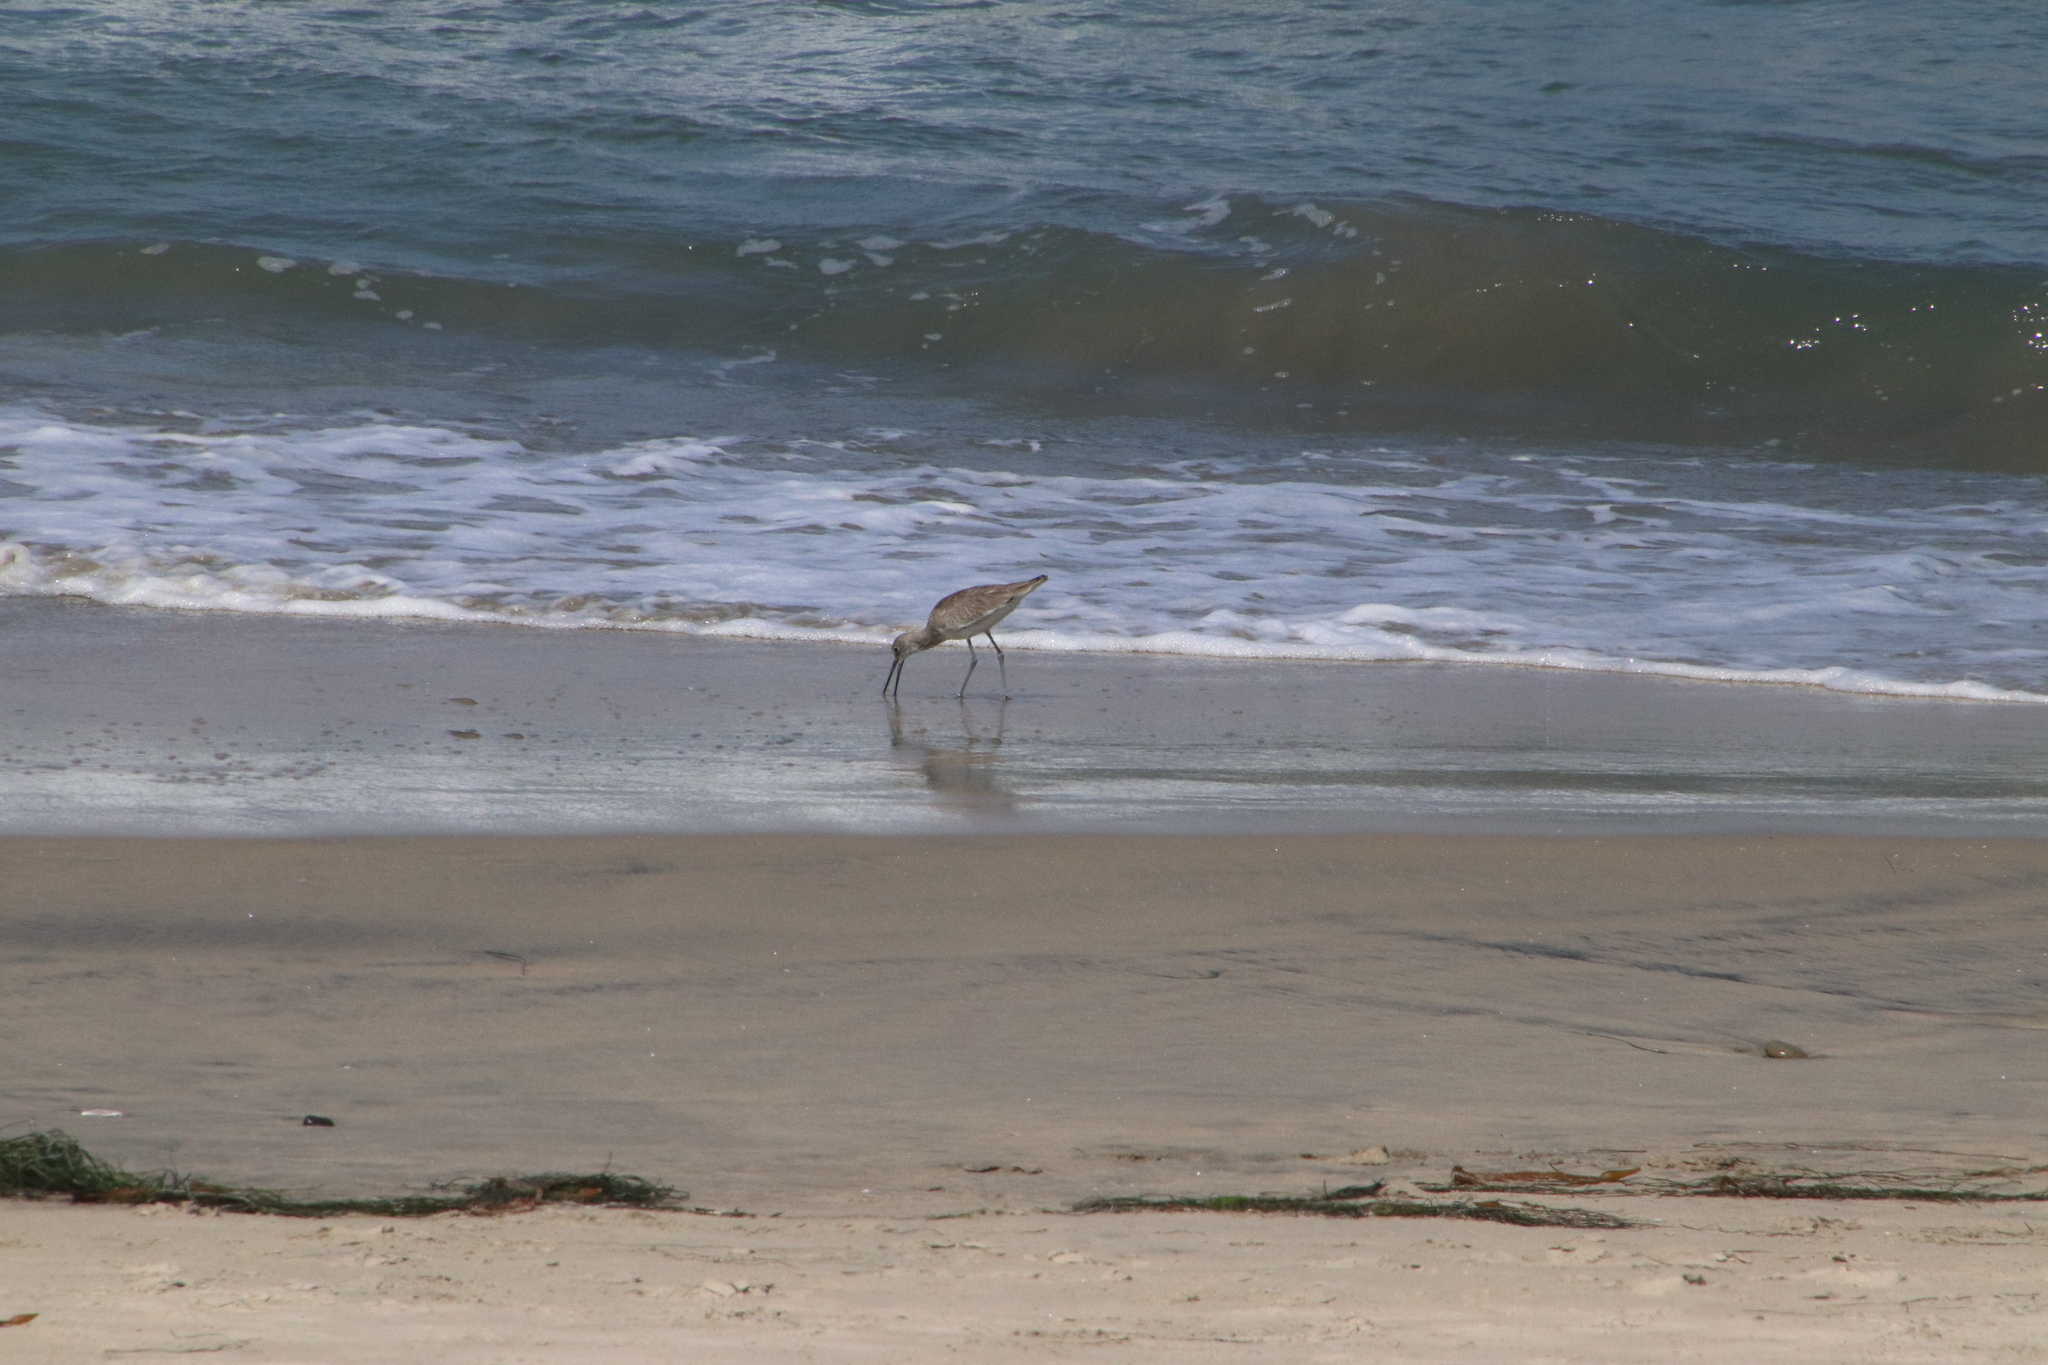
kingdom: Animalia
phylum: Chordata
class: Aves
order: Charadriiformes
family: Scolopacidae
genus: Tringa
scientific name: Tringa semipalmata
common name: Willet
